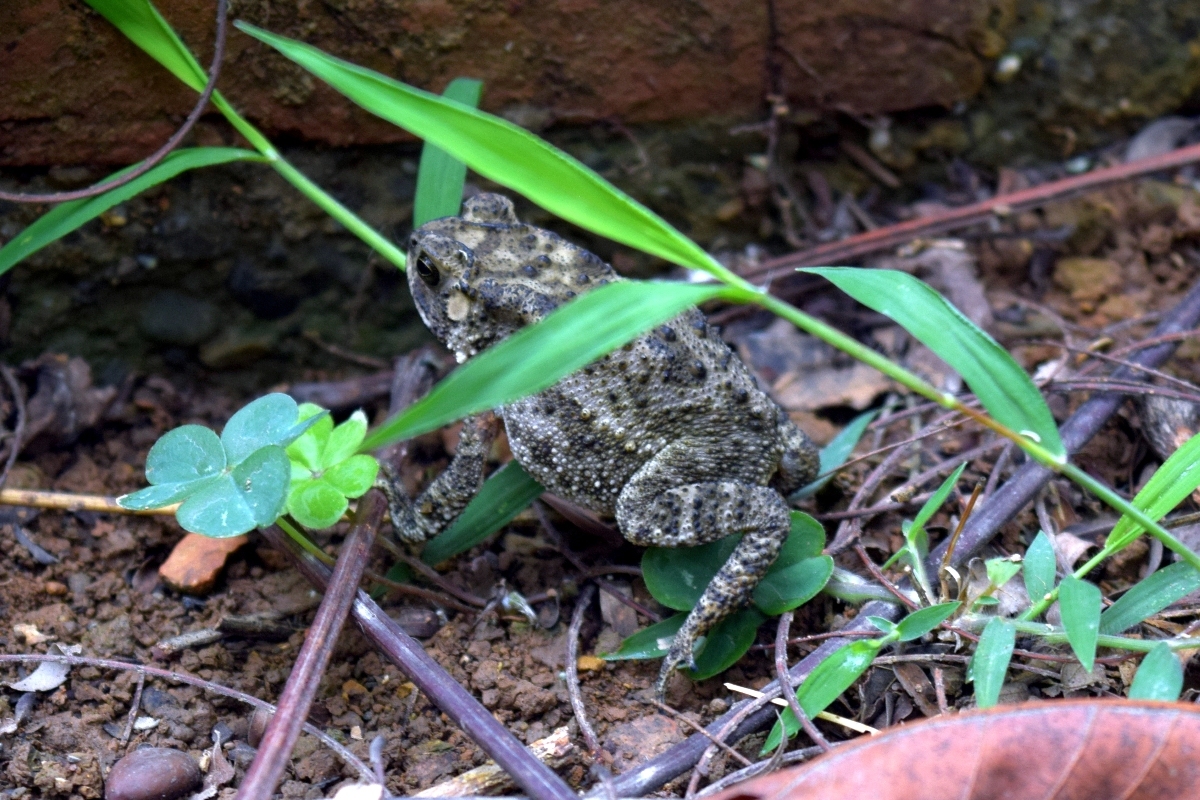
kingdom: Animalia
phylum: Chordata
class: Amphibia
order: Anura
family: Bufonidae
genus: Duttaphrynus
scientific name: Duttaphrynus melanostictus
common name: Common sunda toad
